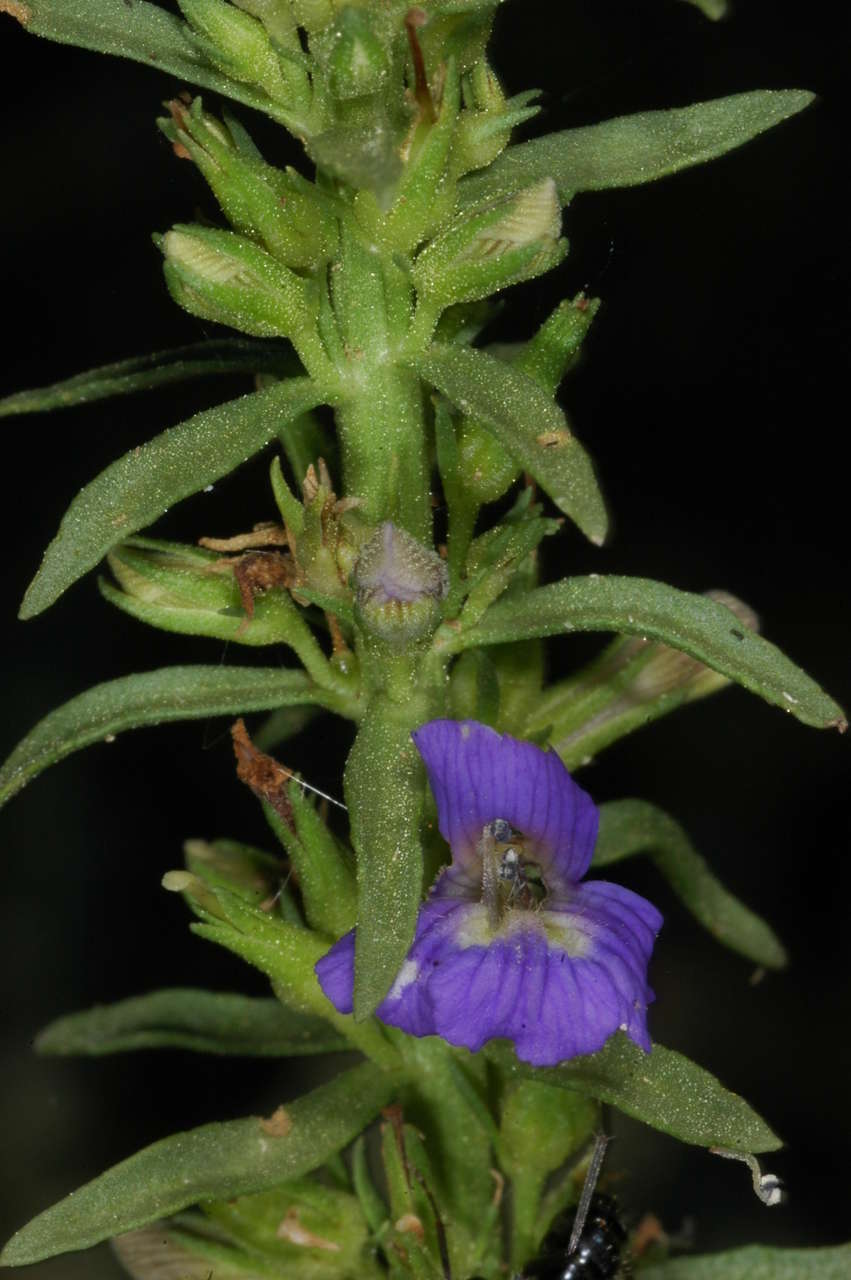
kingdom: Plantae
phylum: Tracheophyta
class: Magnoliopsida
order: Lamiales
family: Plantaginaceae
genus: Stemodia
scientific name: Stemodia florulenta
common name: Bluerod
